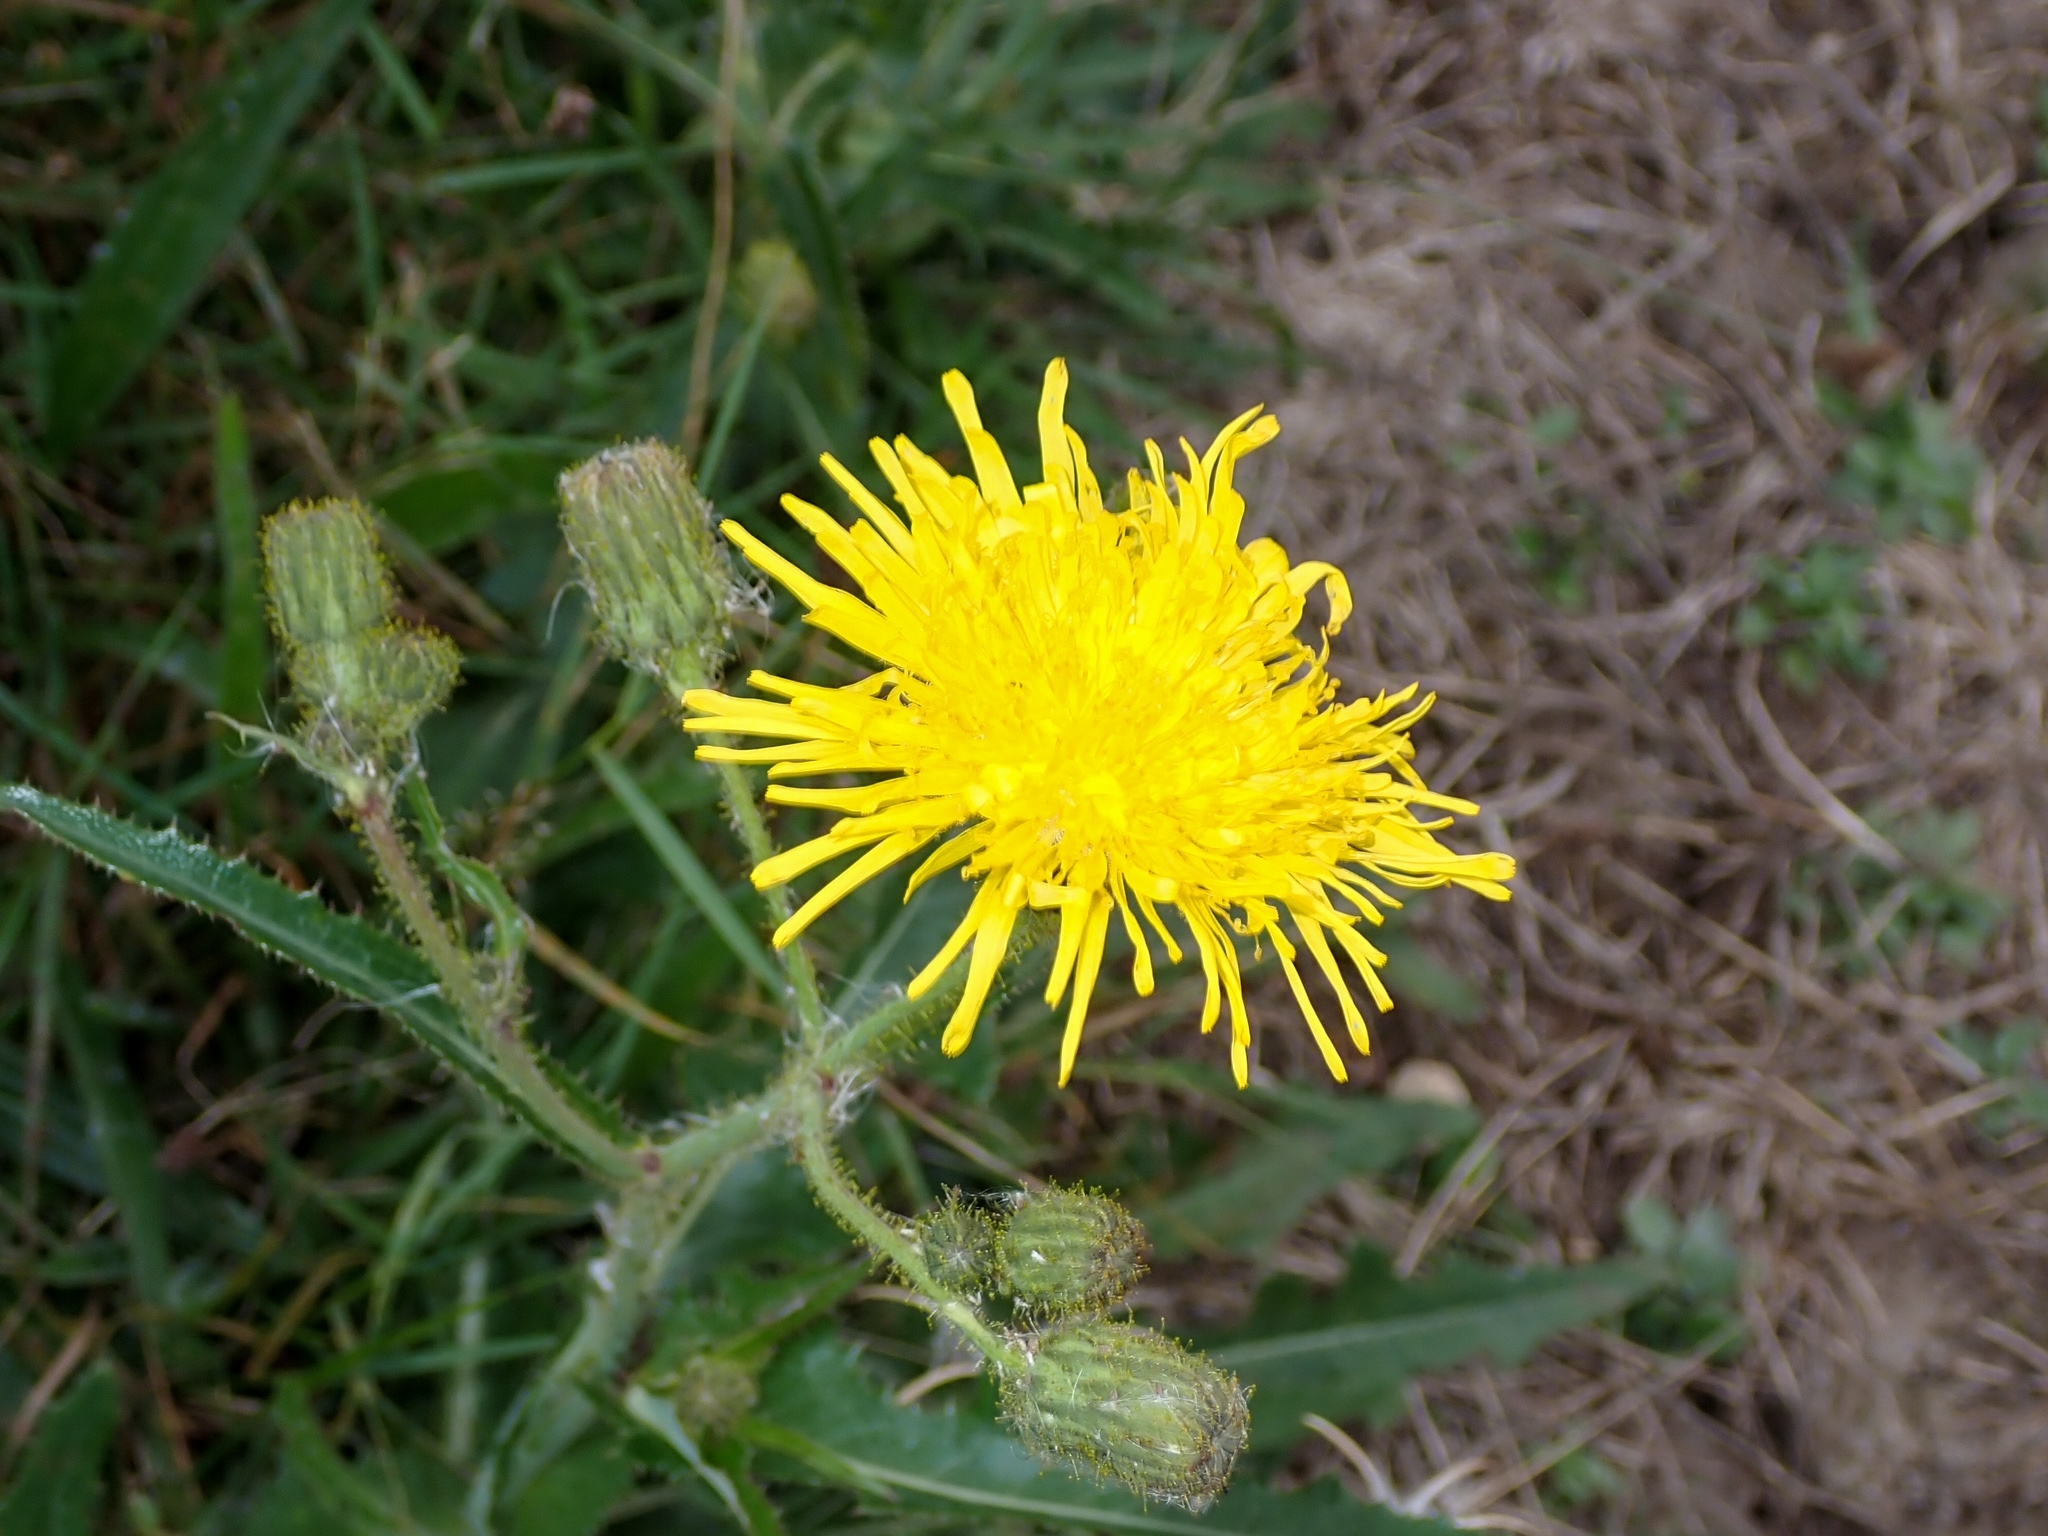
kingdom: Plantae
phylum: Tracheophyta
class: Magnoliopsida
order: Asterales
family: Asteraceae
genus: Sonchus
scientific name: Sonchus arvensis
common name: Perennial sow-thistle
